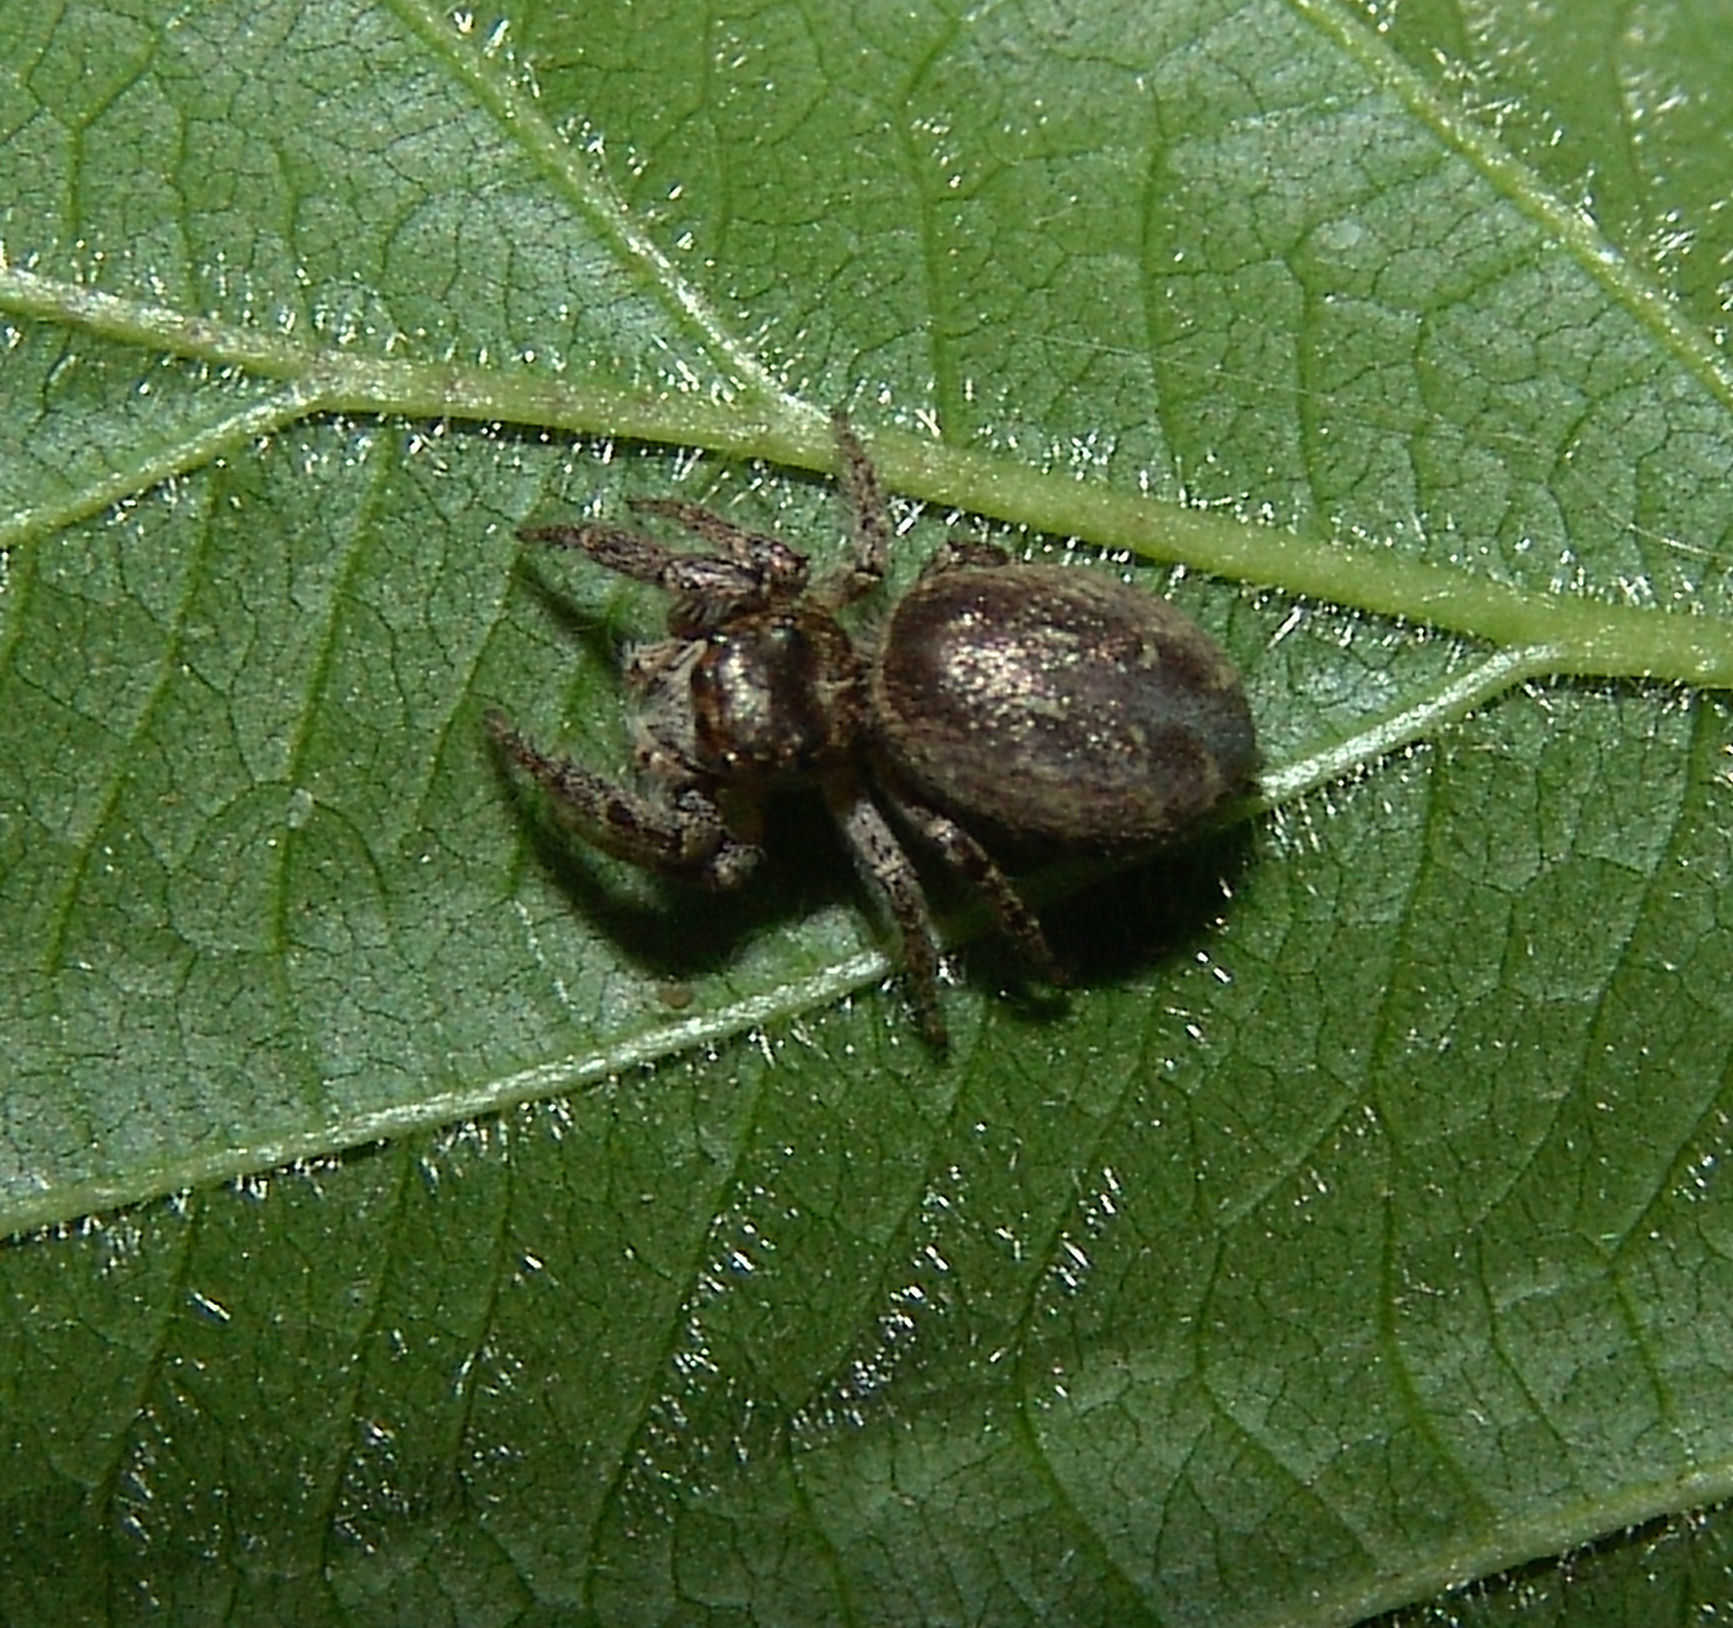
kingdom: Animalia
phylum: Arthropoda
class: Arachnida
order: Araneae
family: Salticidae
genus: Eris
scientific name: Eris militaris
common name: Bronze jumper
